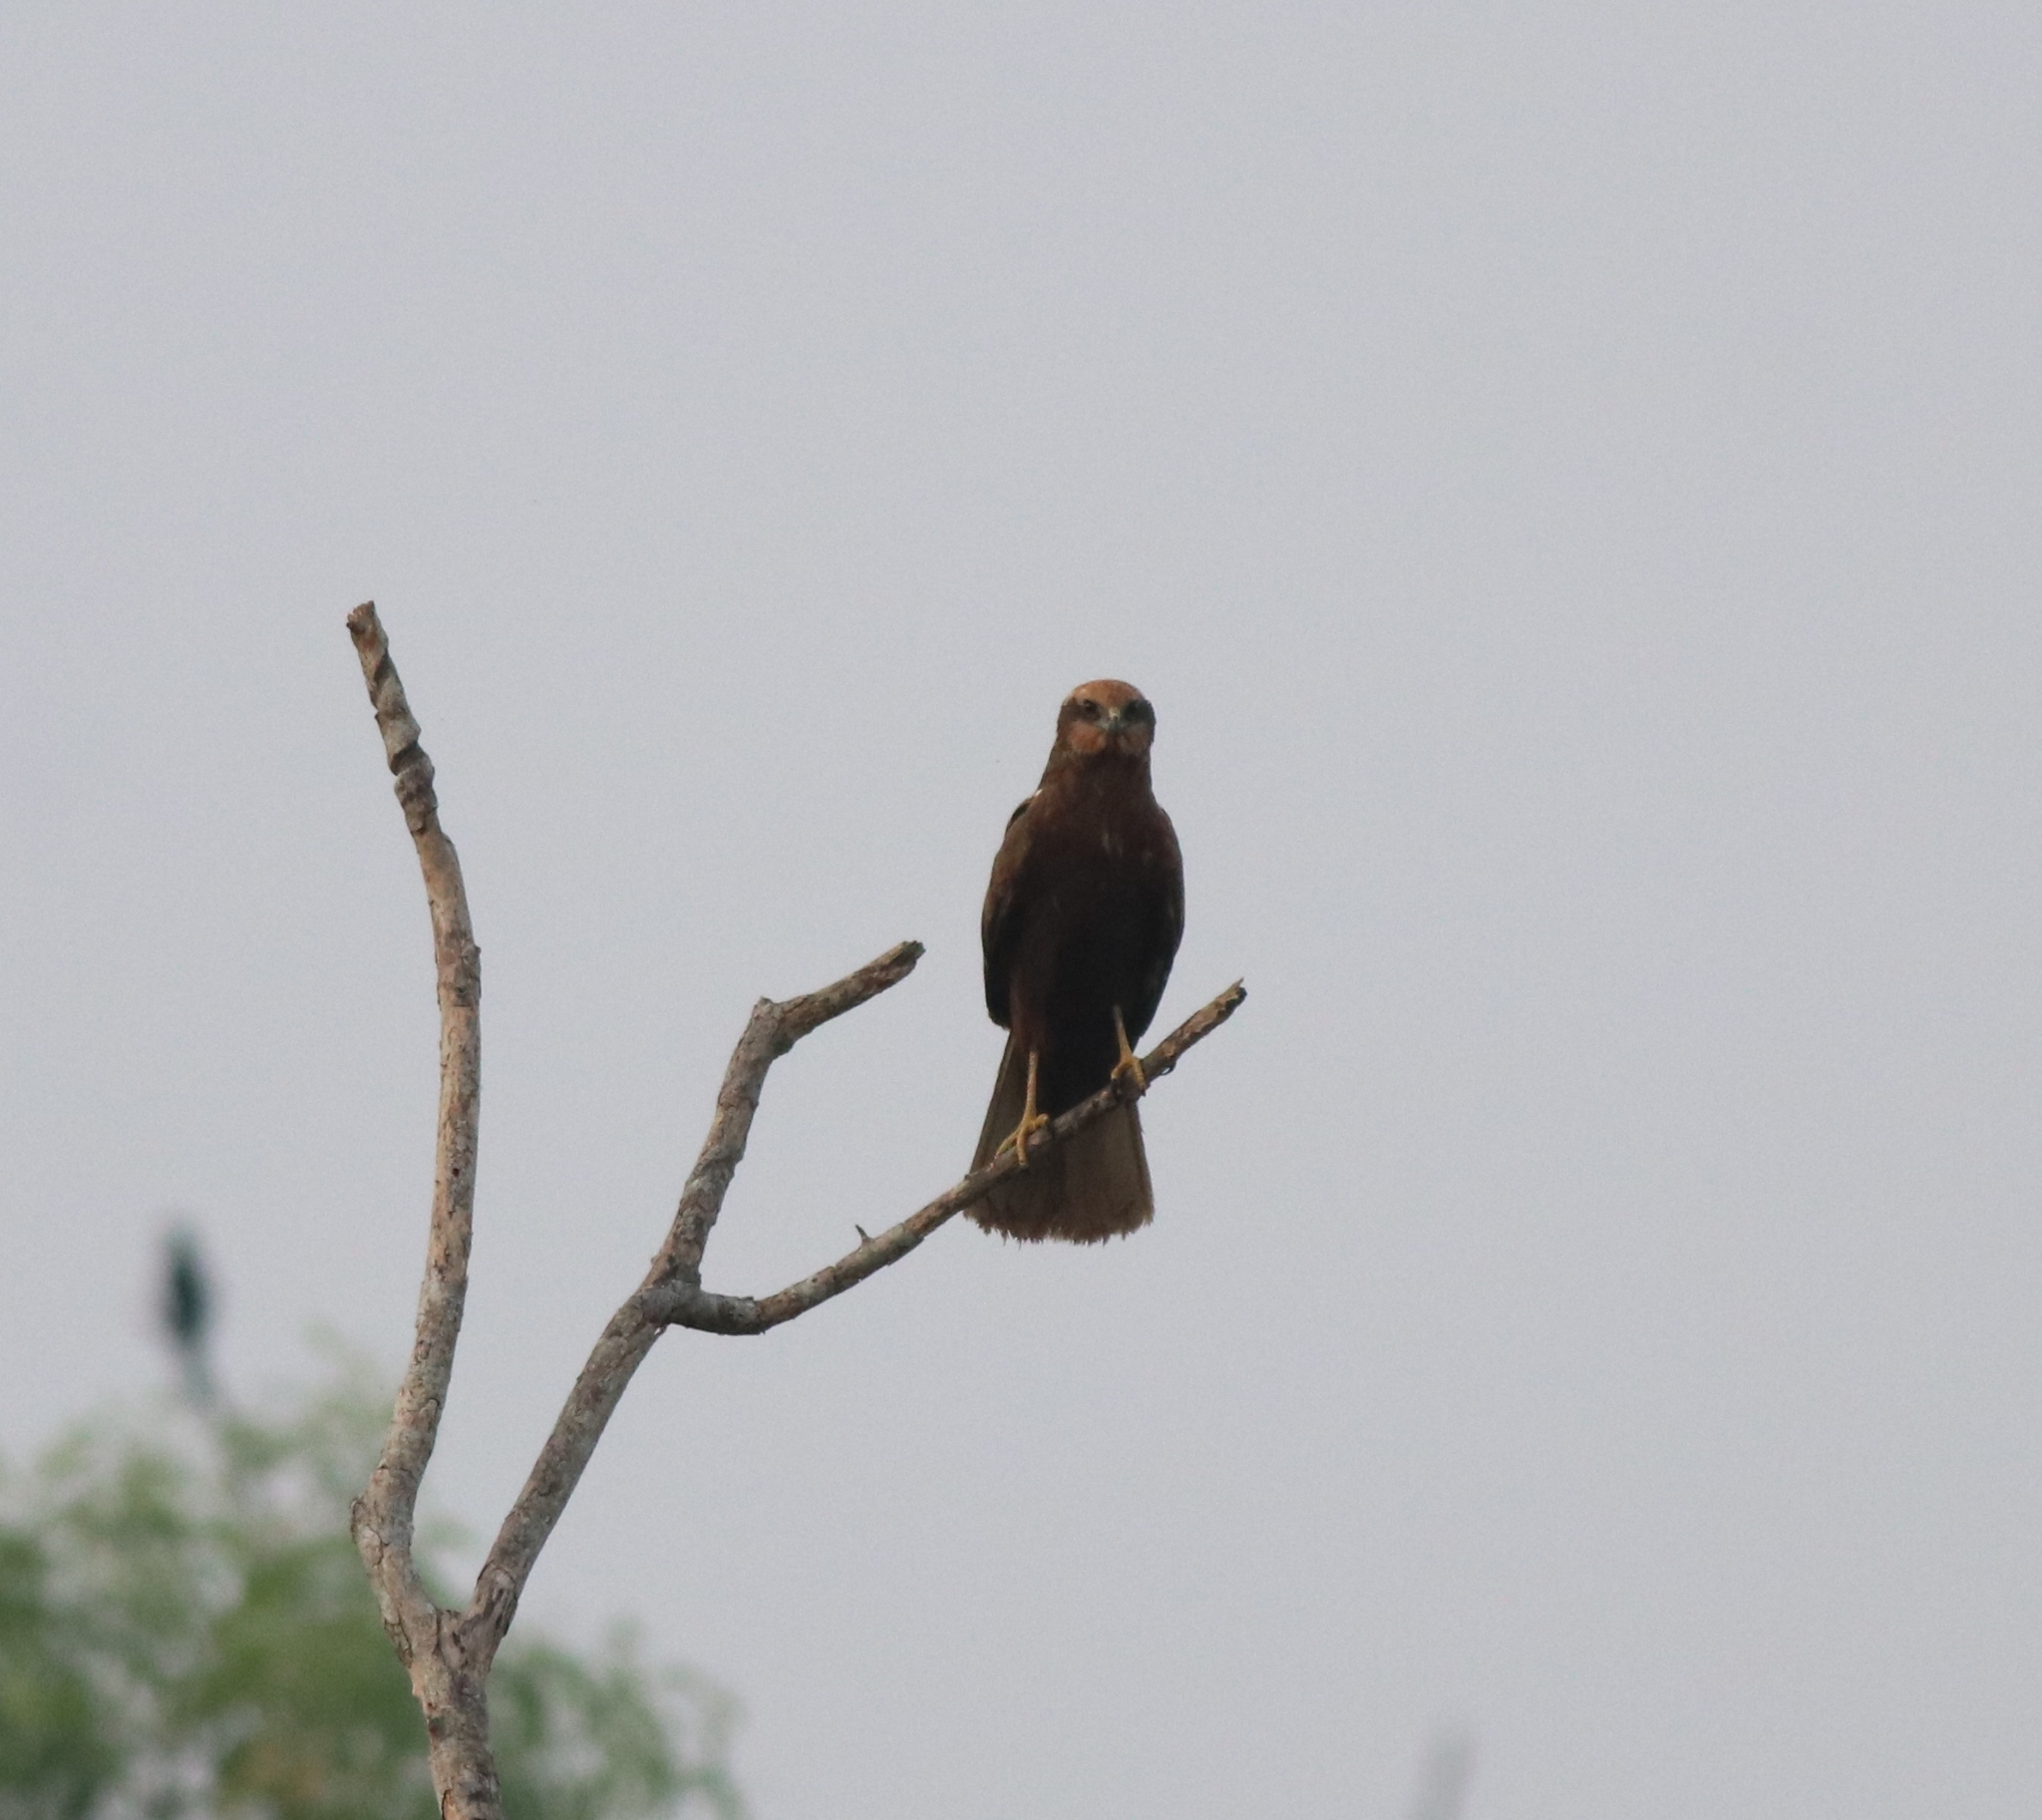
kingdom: Animalia
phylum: Chordata
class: Aves
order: Accipitriformes
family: Accipitridae
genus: Circus
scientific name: Circus aeruginosus
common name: Western marsh harrier
